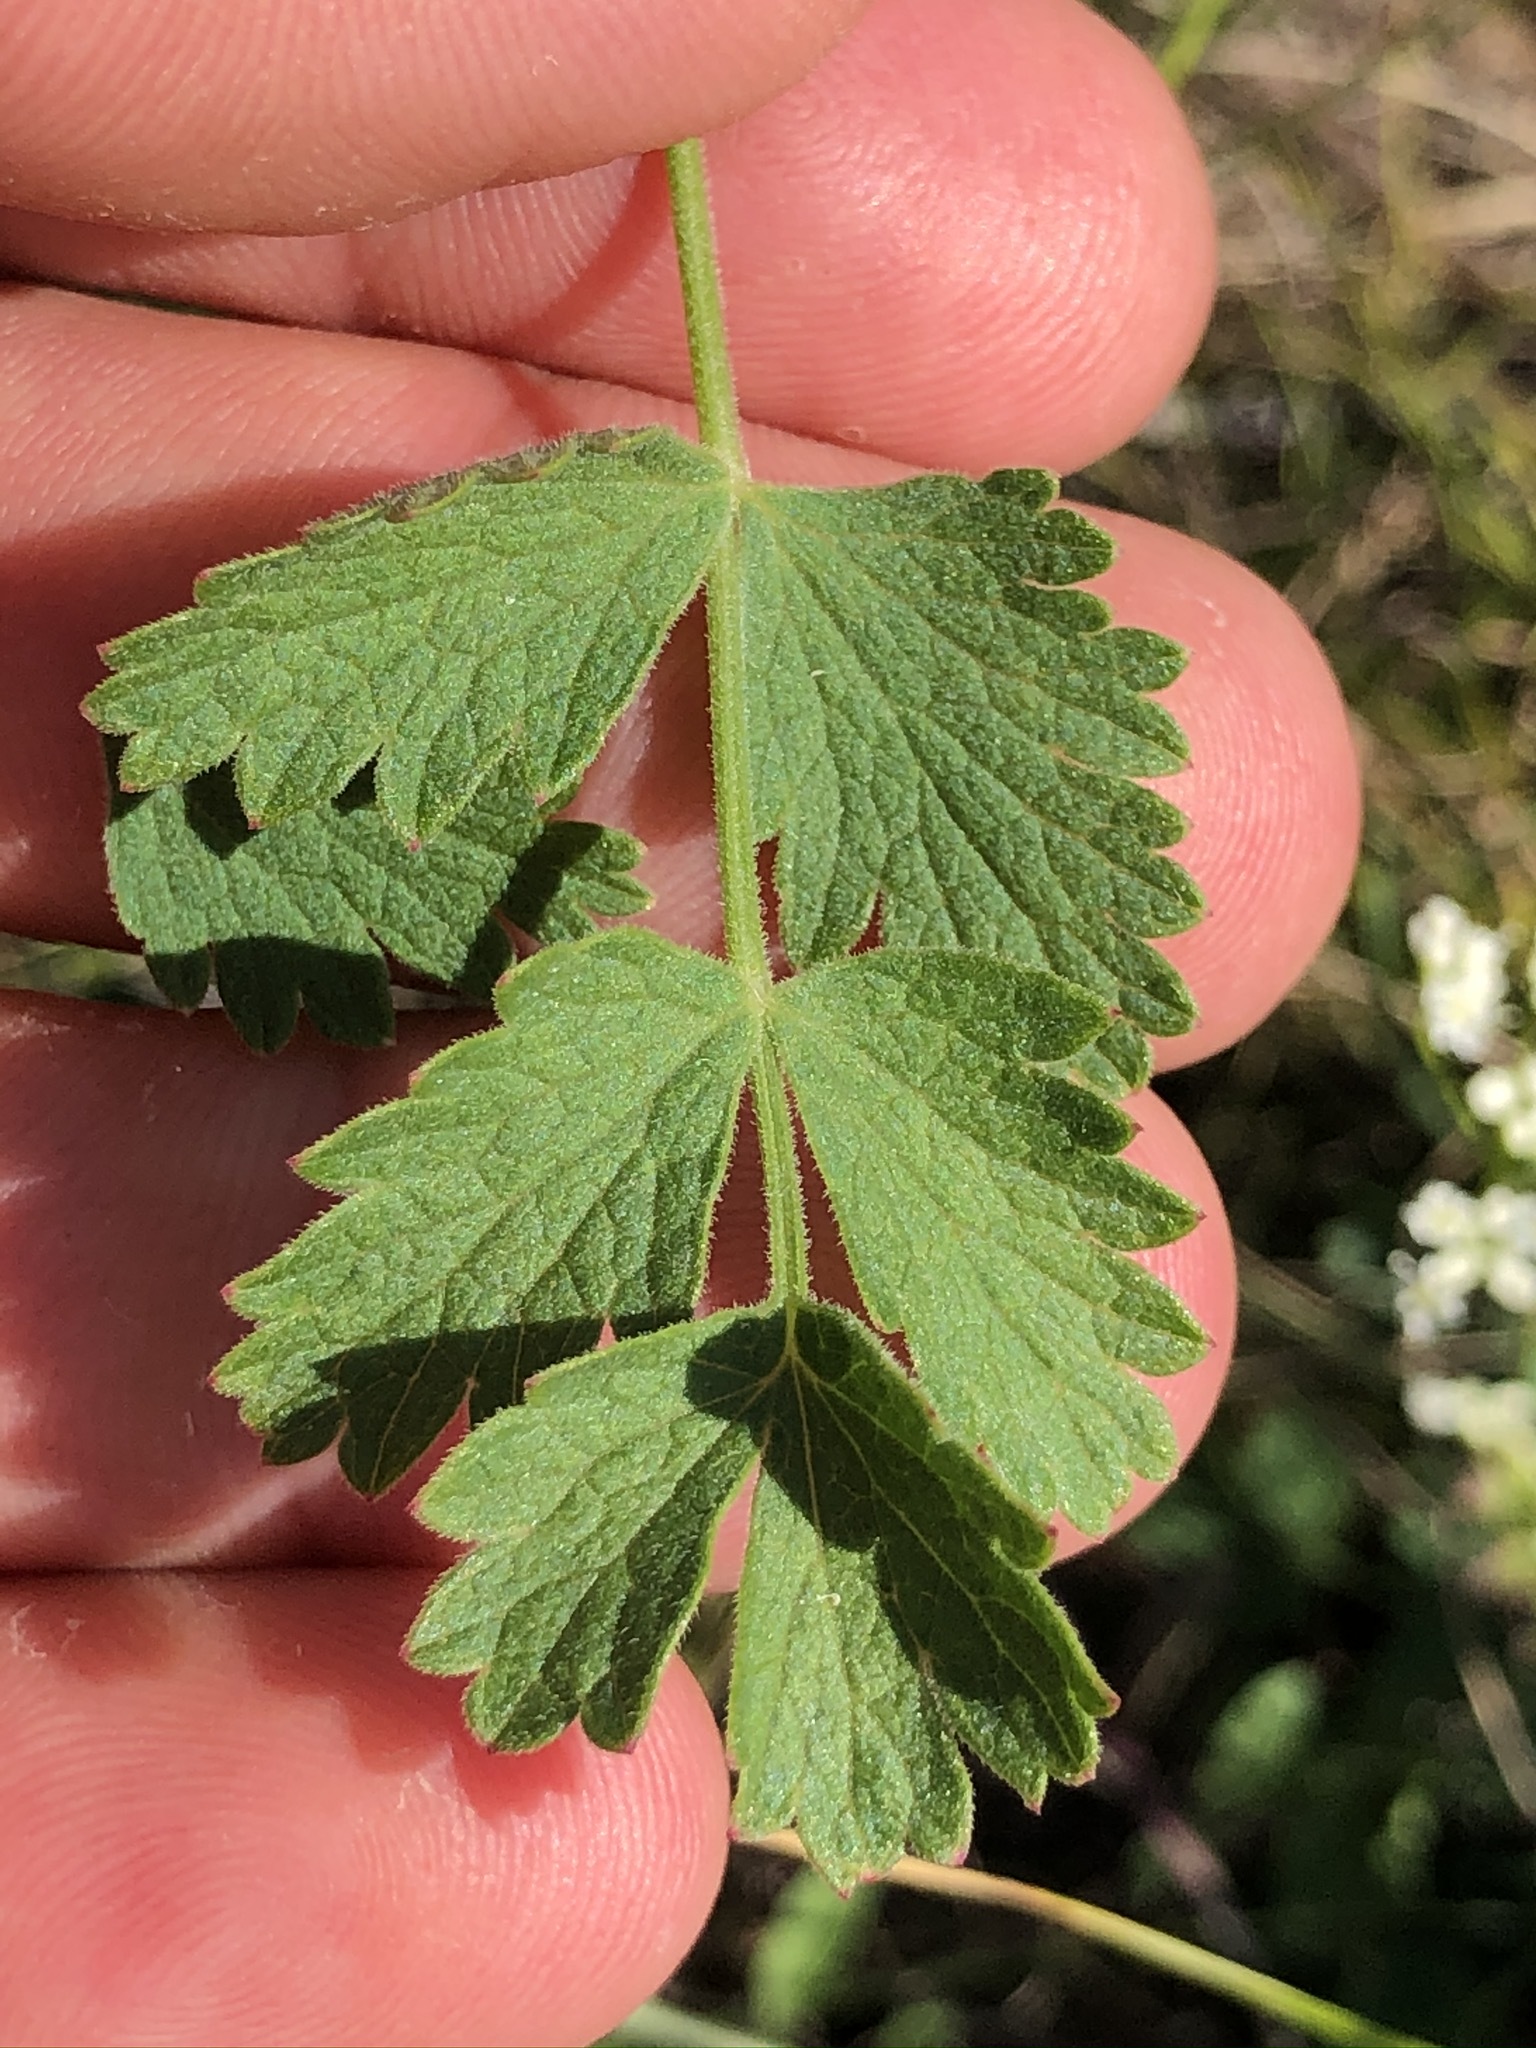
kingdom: Plantae
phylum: Tracheophyta
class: Magnoliopsida
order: Apiales
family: Apiaceae
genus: Pimpinella
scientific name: Pimpinella saxifraga
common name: Burnet-saxifrage
